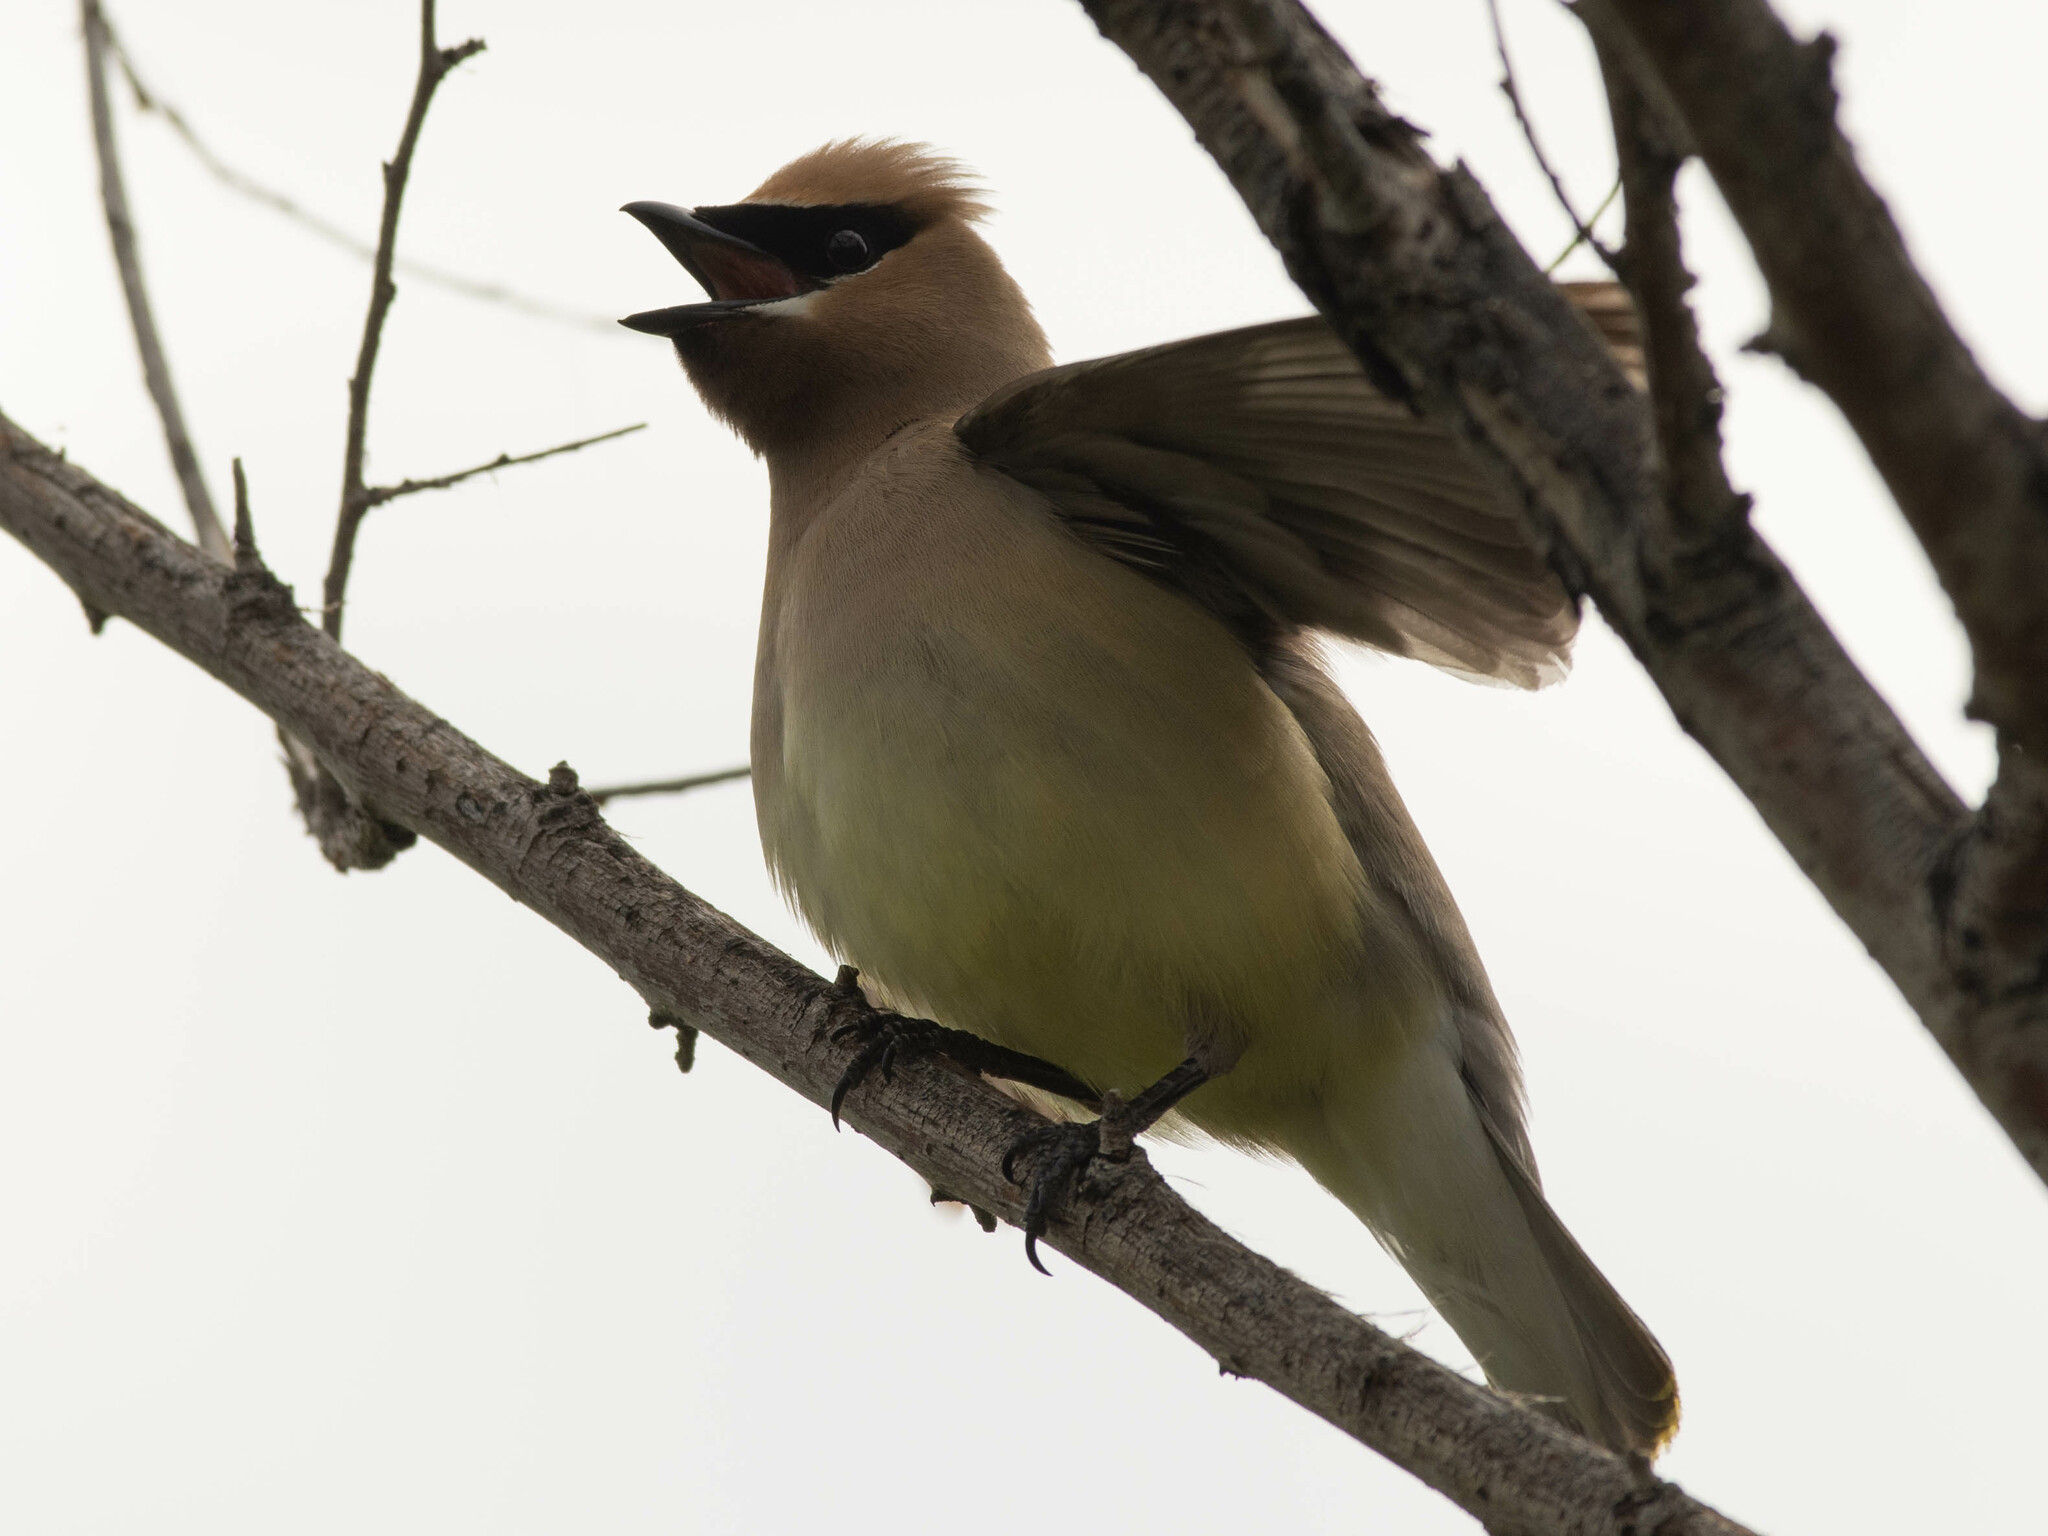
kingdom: Animalia
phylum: Chordata
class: Aves
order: Passeriformes
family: Bombycillidae
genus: Bombycilla
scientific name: Bombycilla cedrorum
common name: Cedar waxwing
